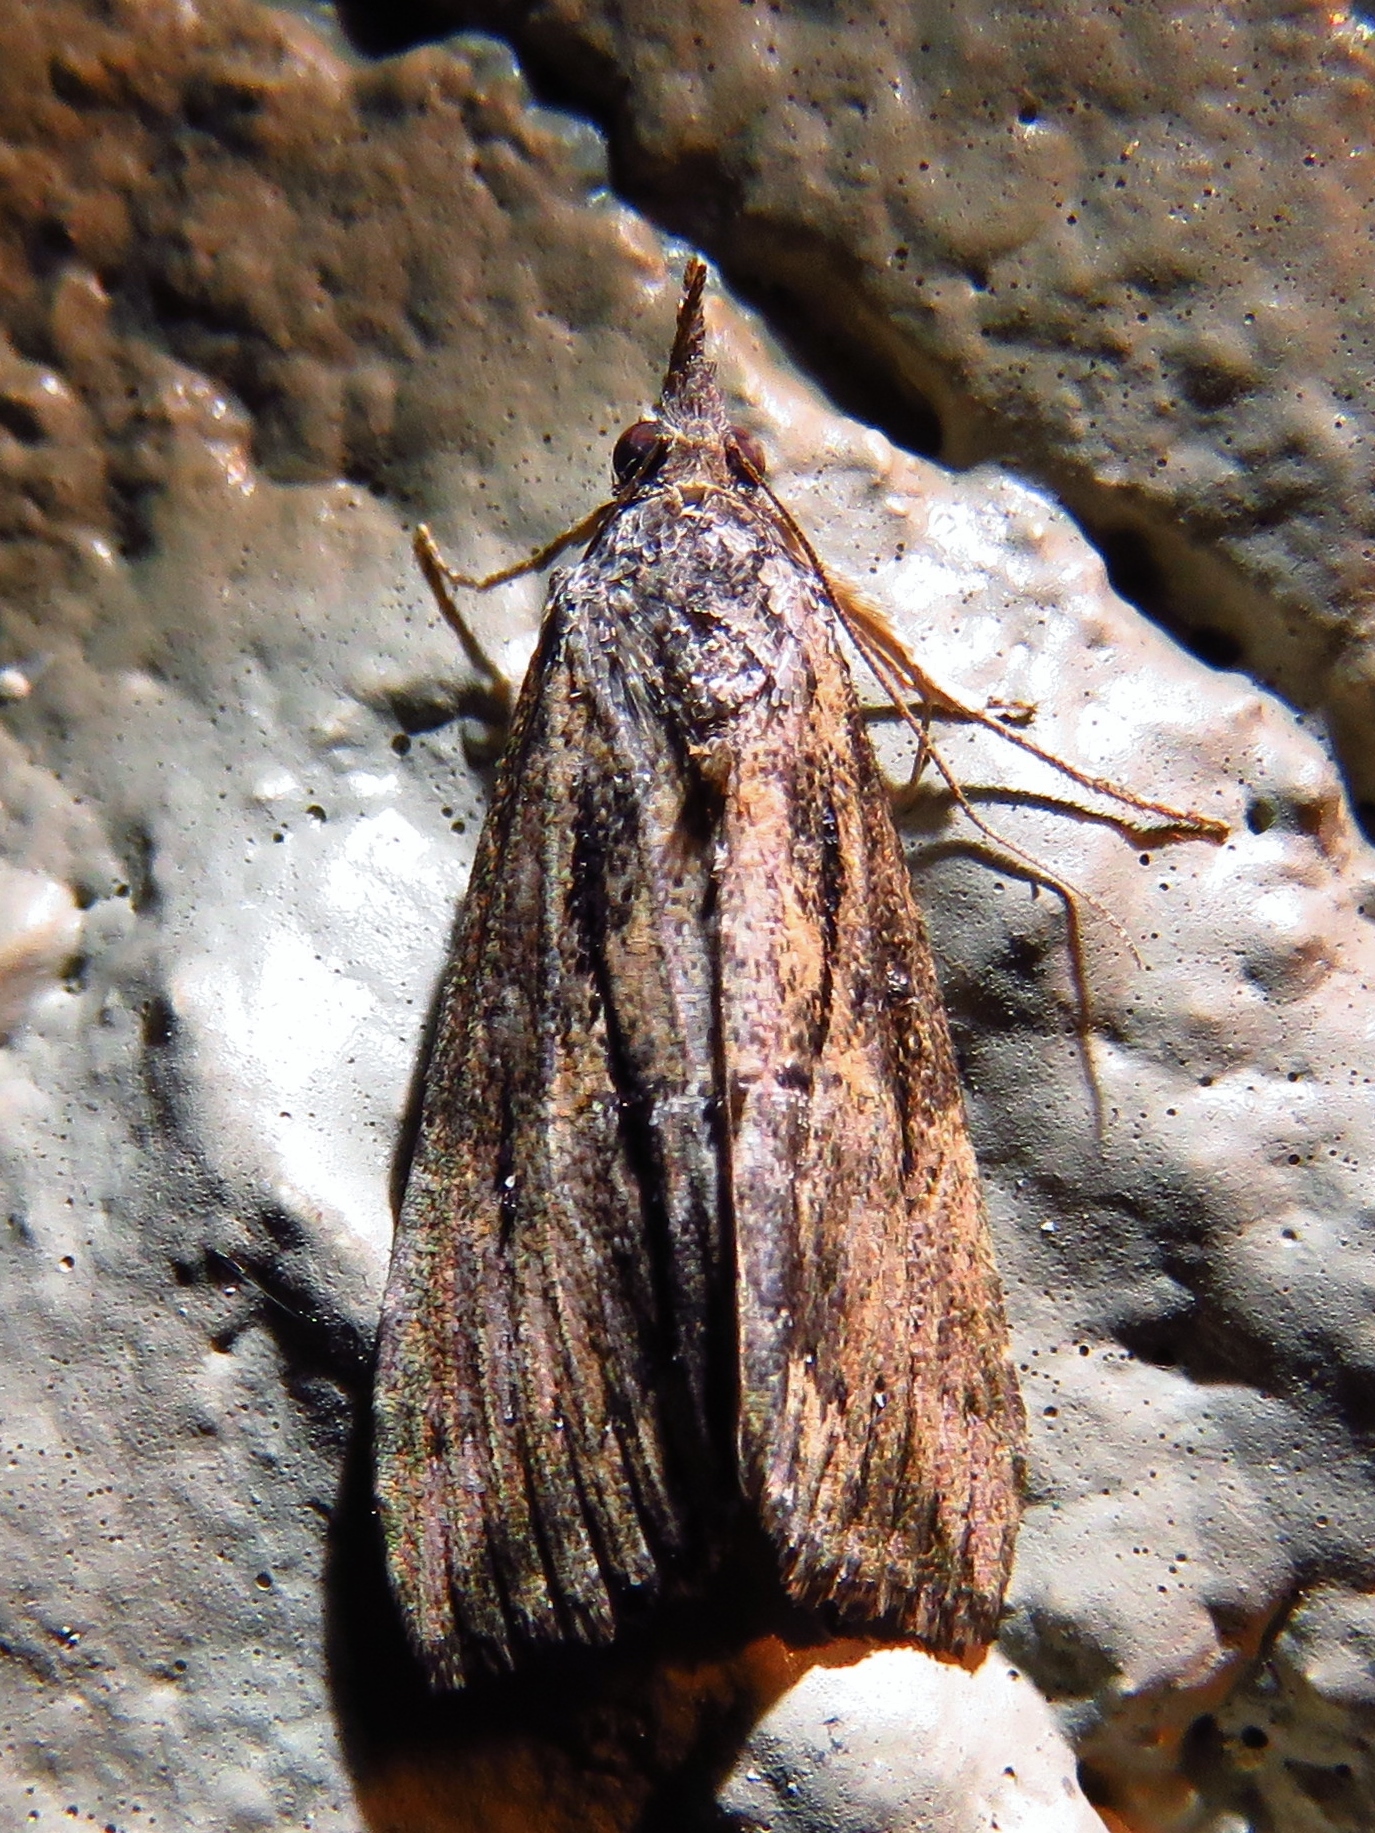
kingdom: Animalia
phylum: Arthropoda
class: Insecta
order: Lepidoptera
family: Erebidae
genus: Hypena
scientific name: Hypena scabra
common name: Green cloverworm
